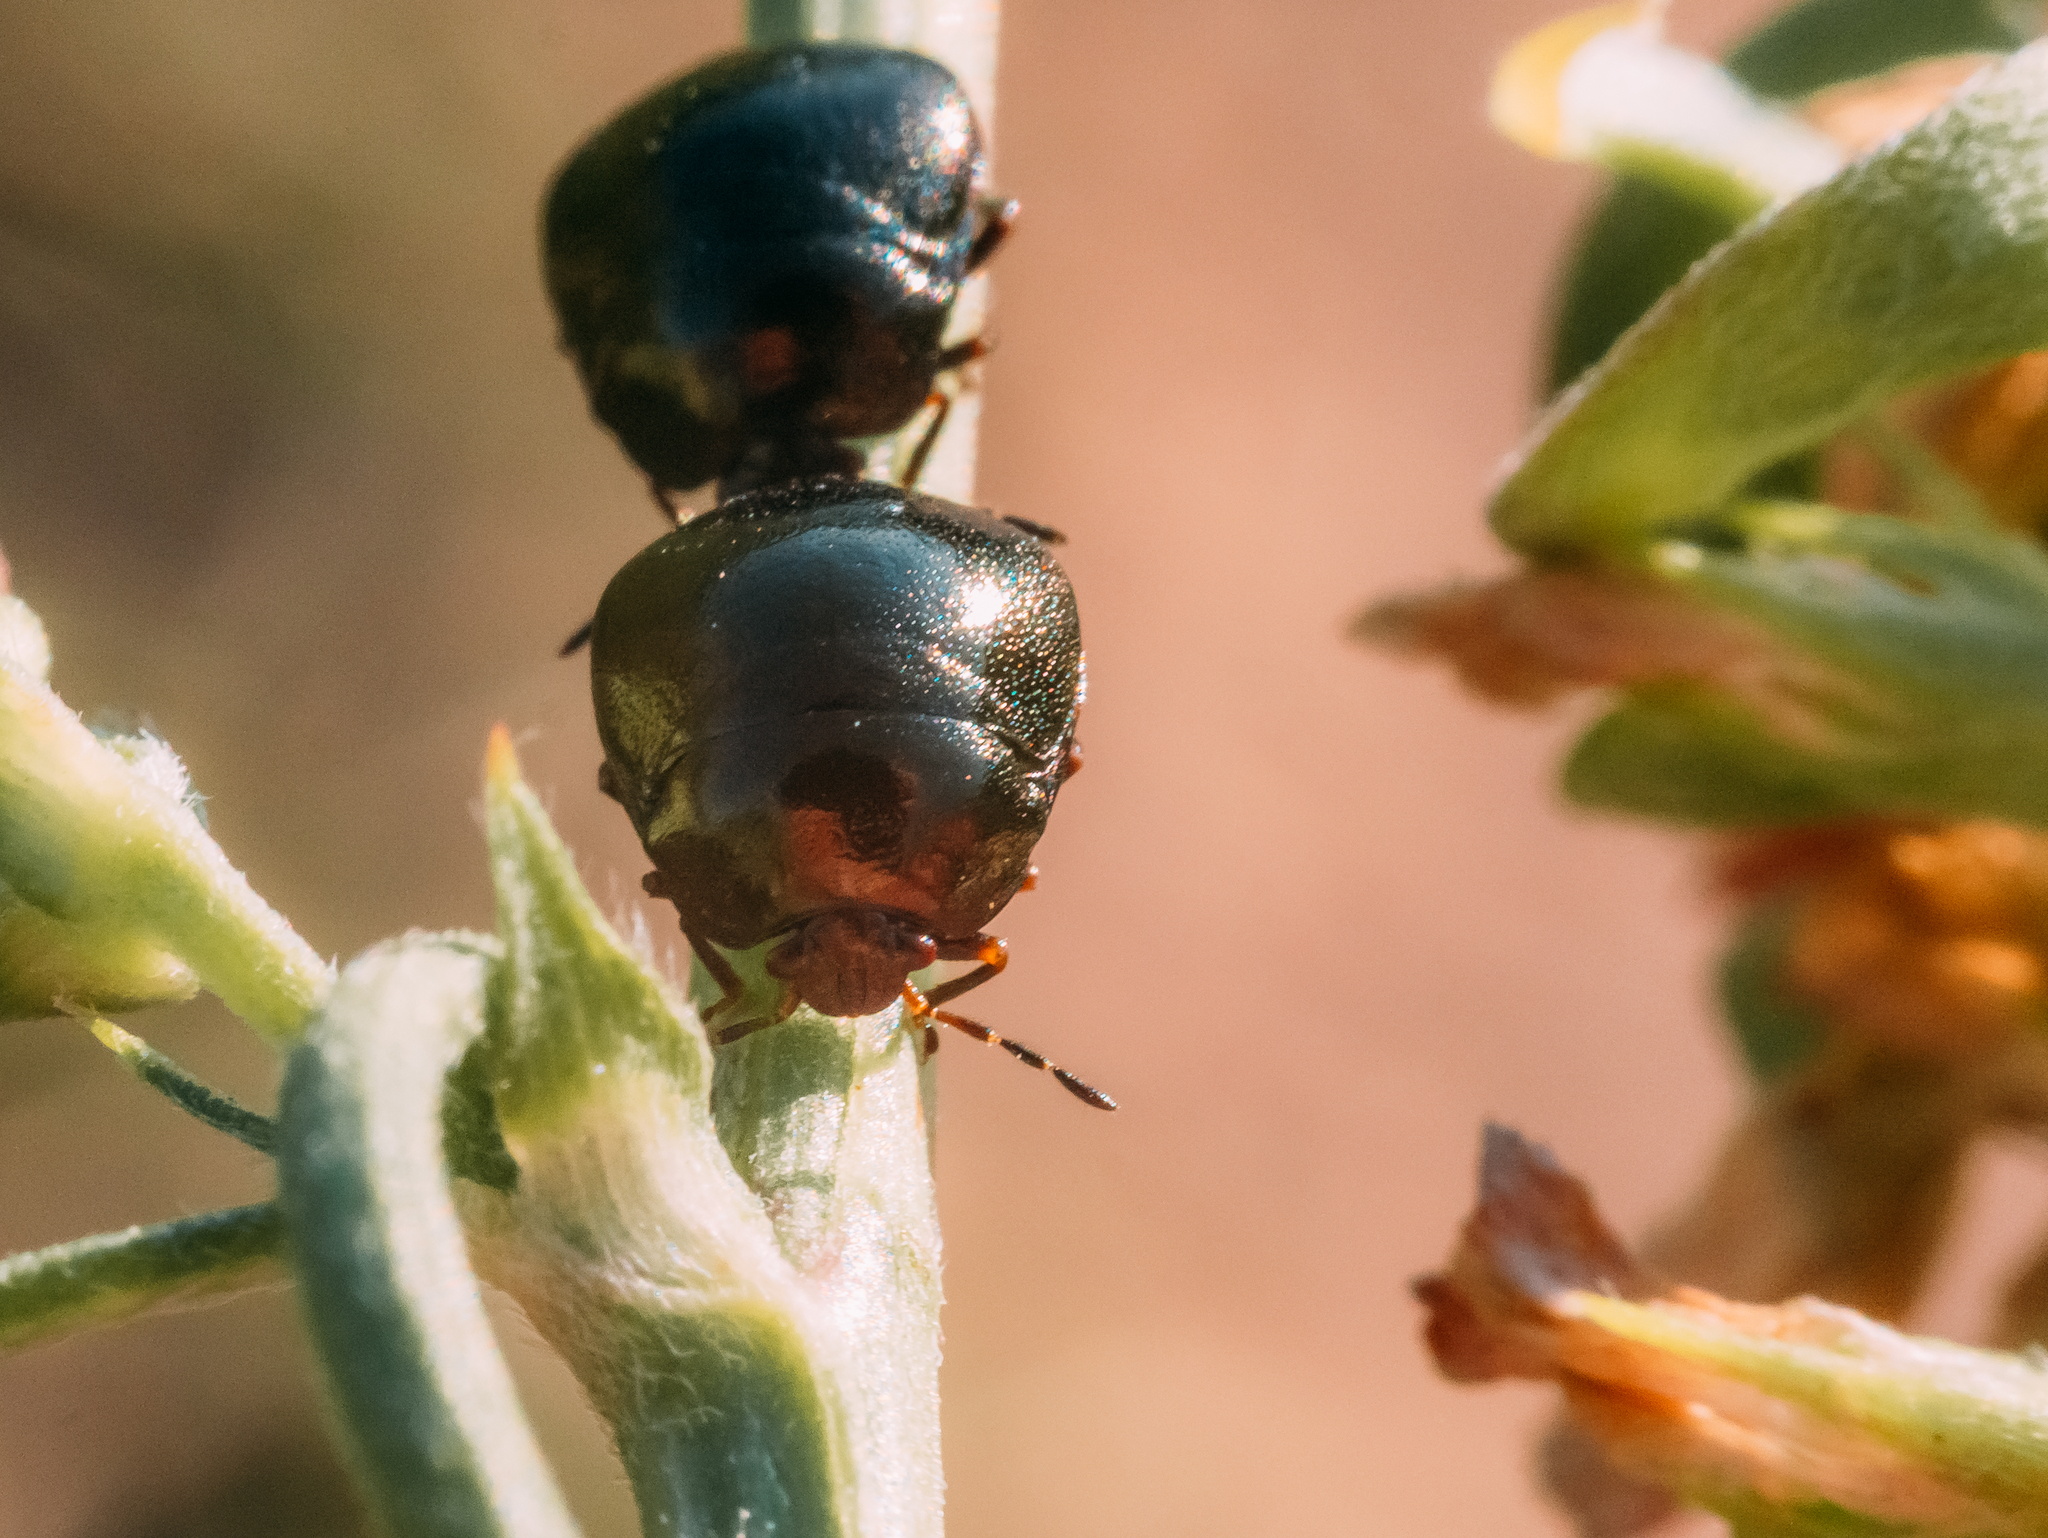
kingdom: Animalia
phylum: Arthropoda
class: Insecta
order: Hemiptera
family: Plataspidae
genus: Coptosoma
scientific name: Coptosoma scutellatum
